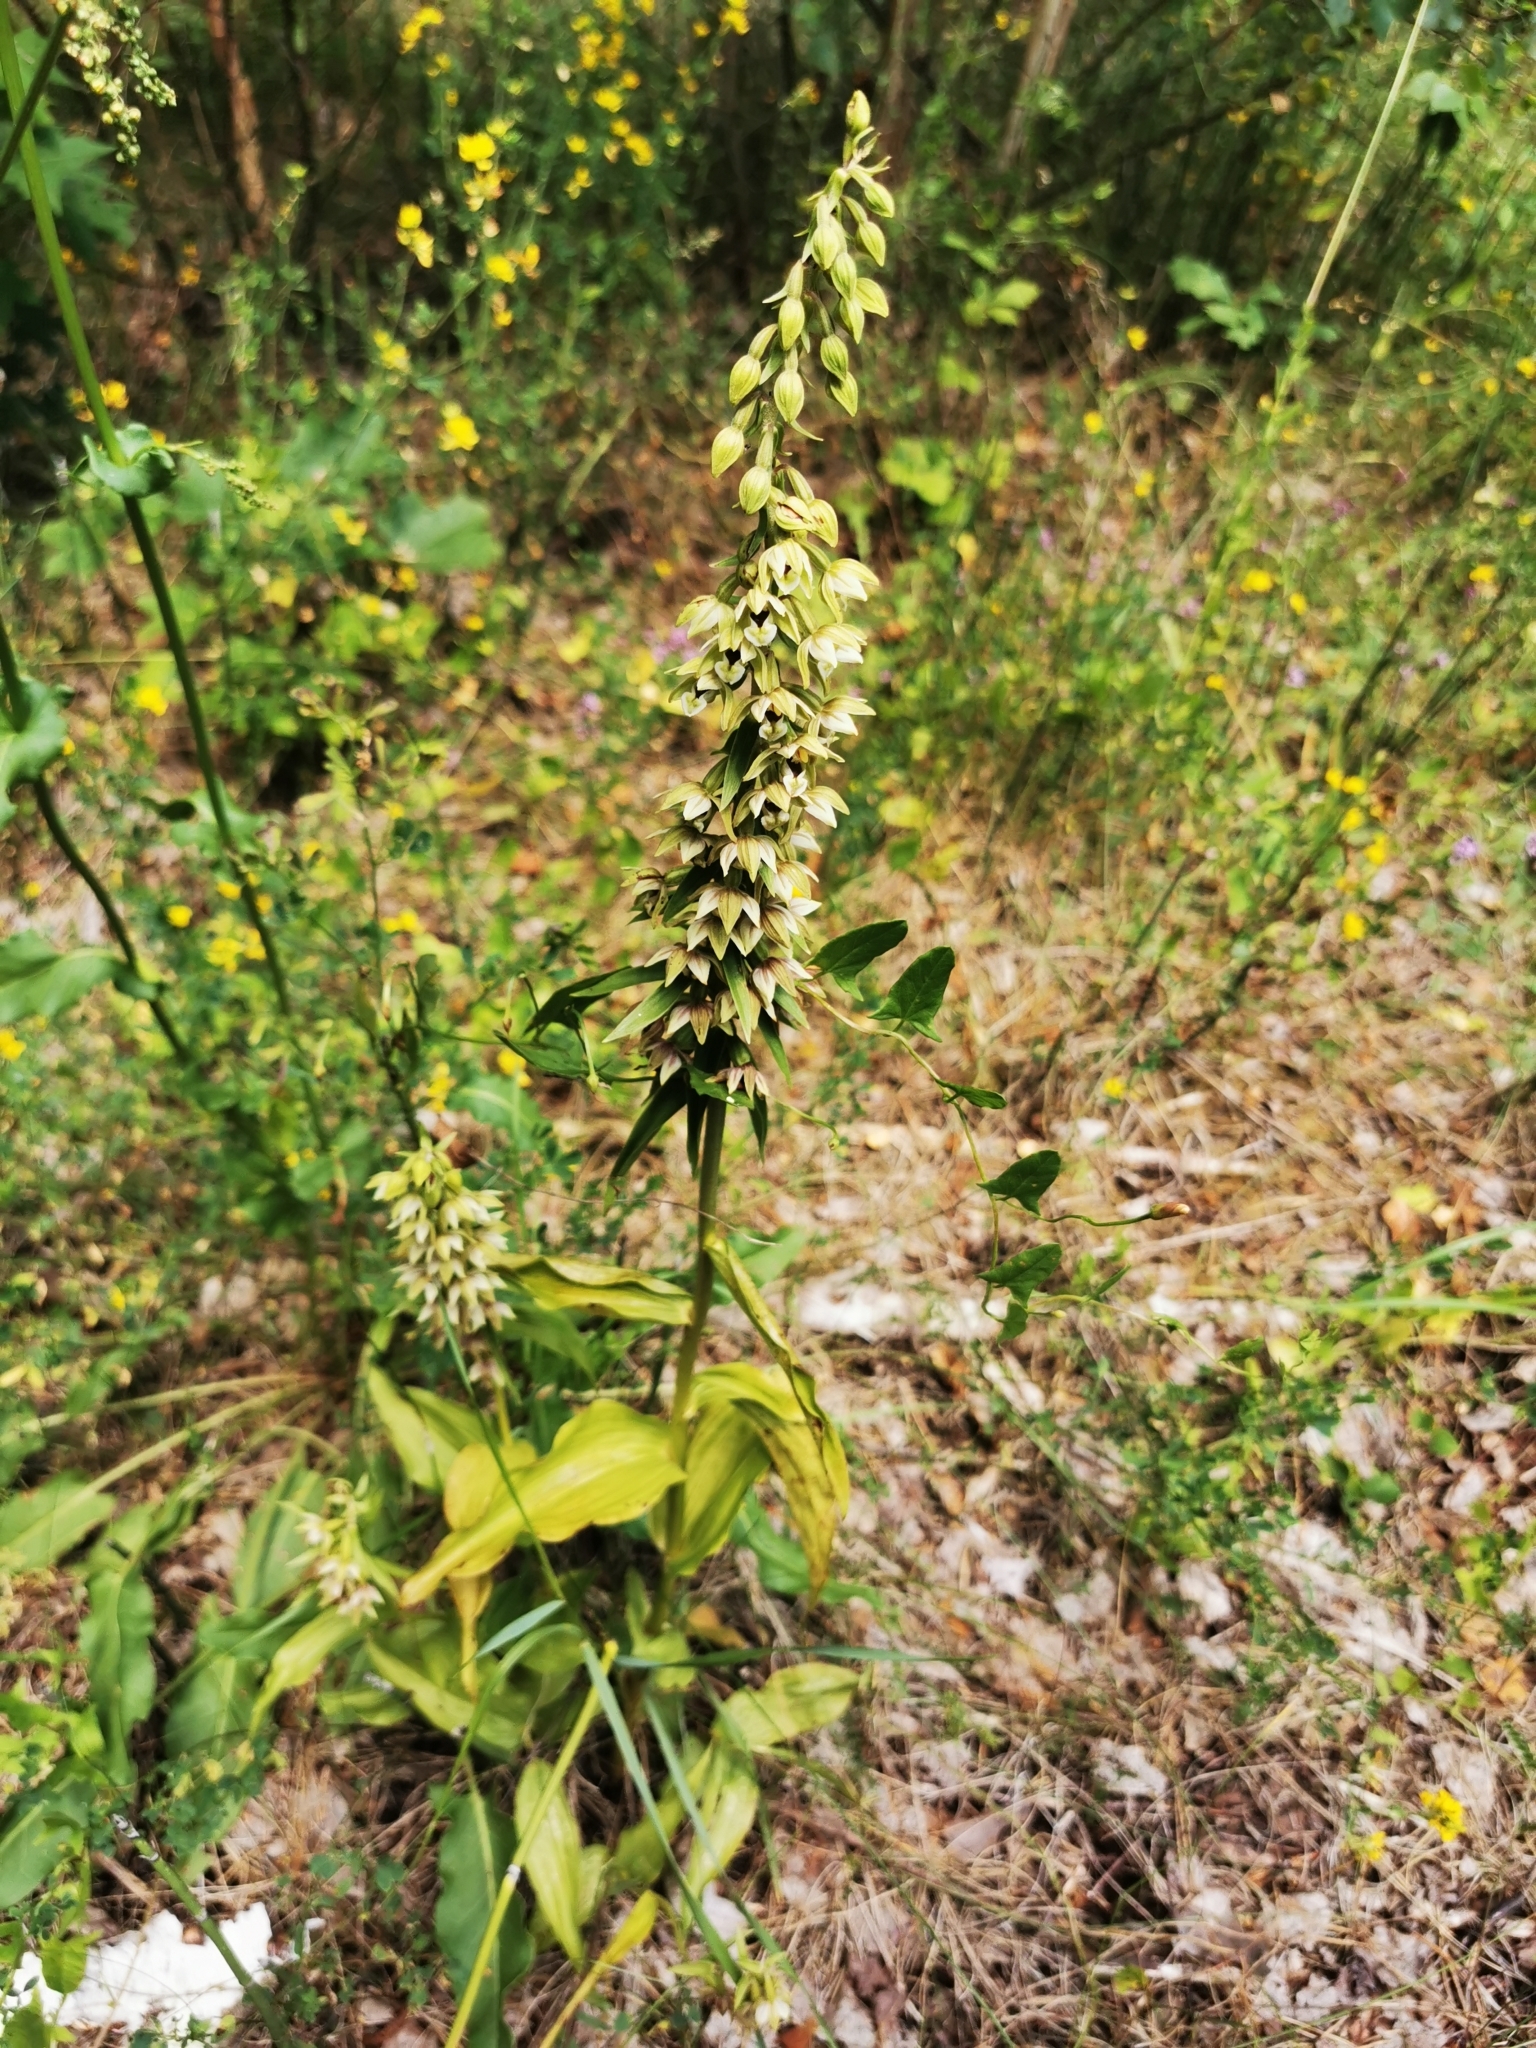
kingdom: Plantae
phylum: Tracheophyta
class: Liliopsida
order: Asparagales
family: Orchidaceae
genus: Epipactis
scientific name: Epipactis helleborine
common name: Broad-leaved helleborine
